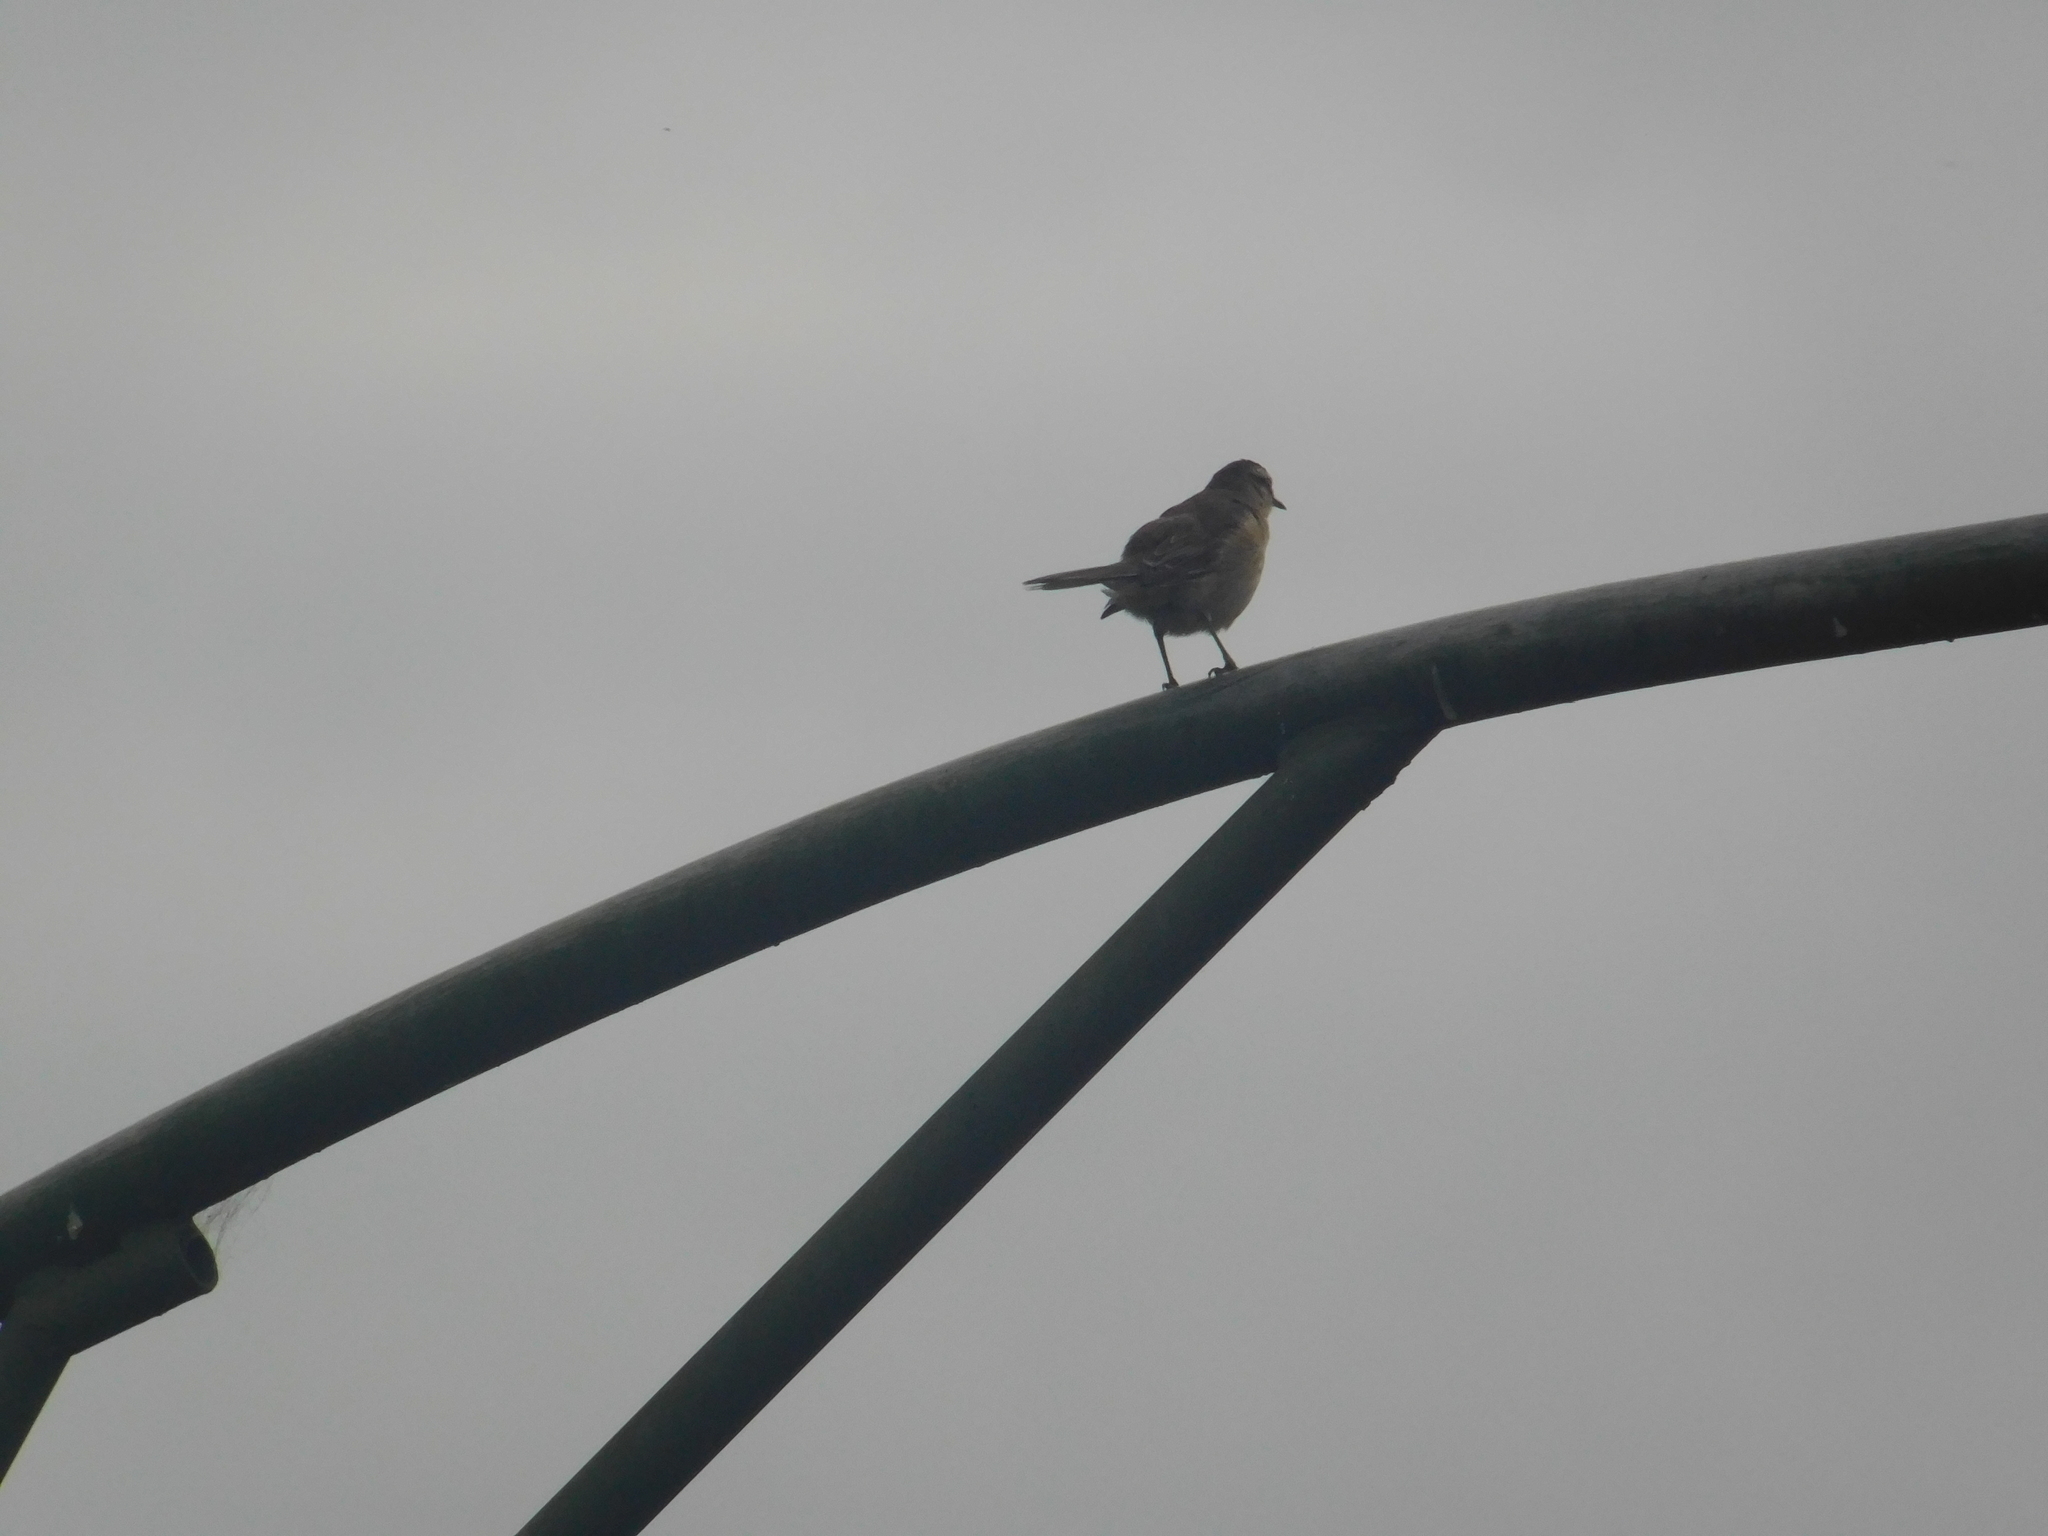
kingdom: Animalia
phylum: Chordata
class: Aves
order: Passeriformes
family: Mimidae
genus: Mimus
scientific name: Mimus saturninus
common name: Chalk-browed mockingbird
